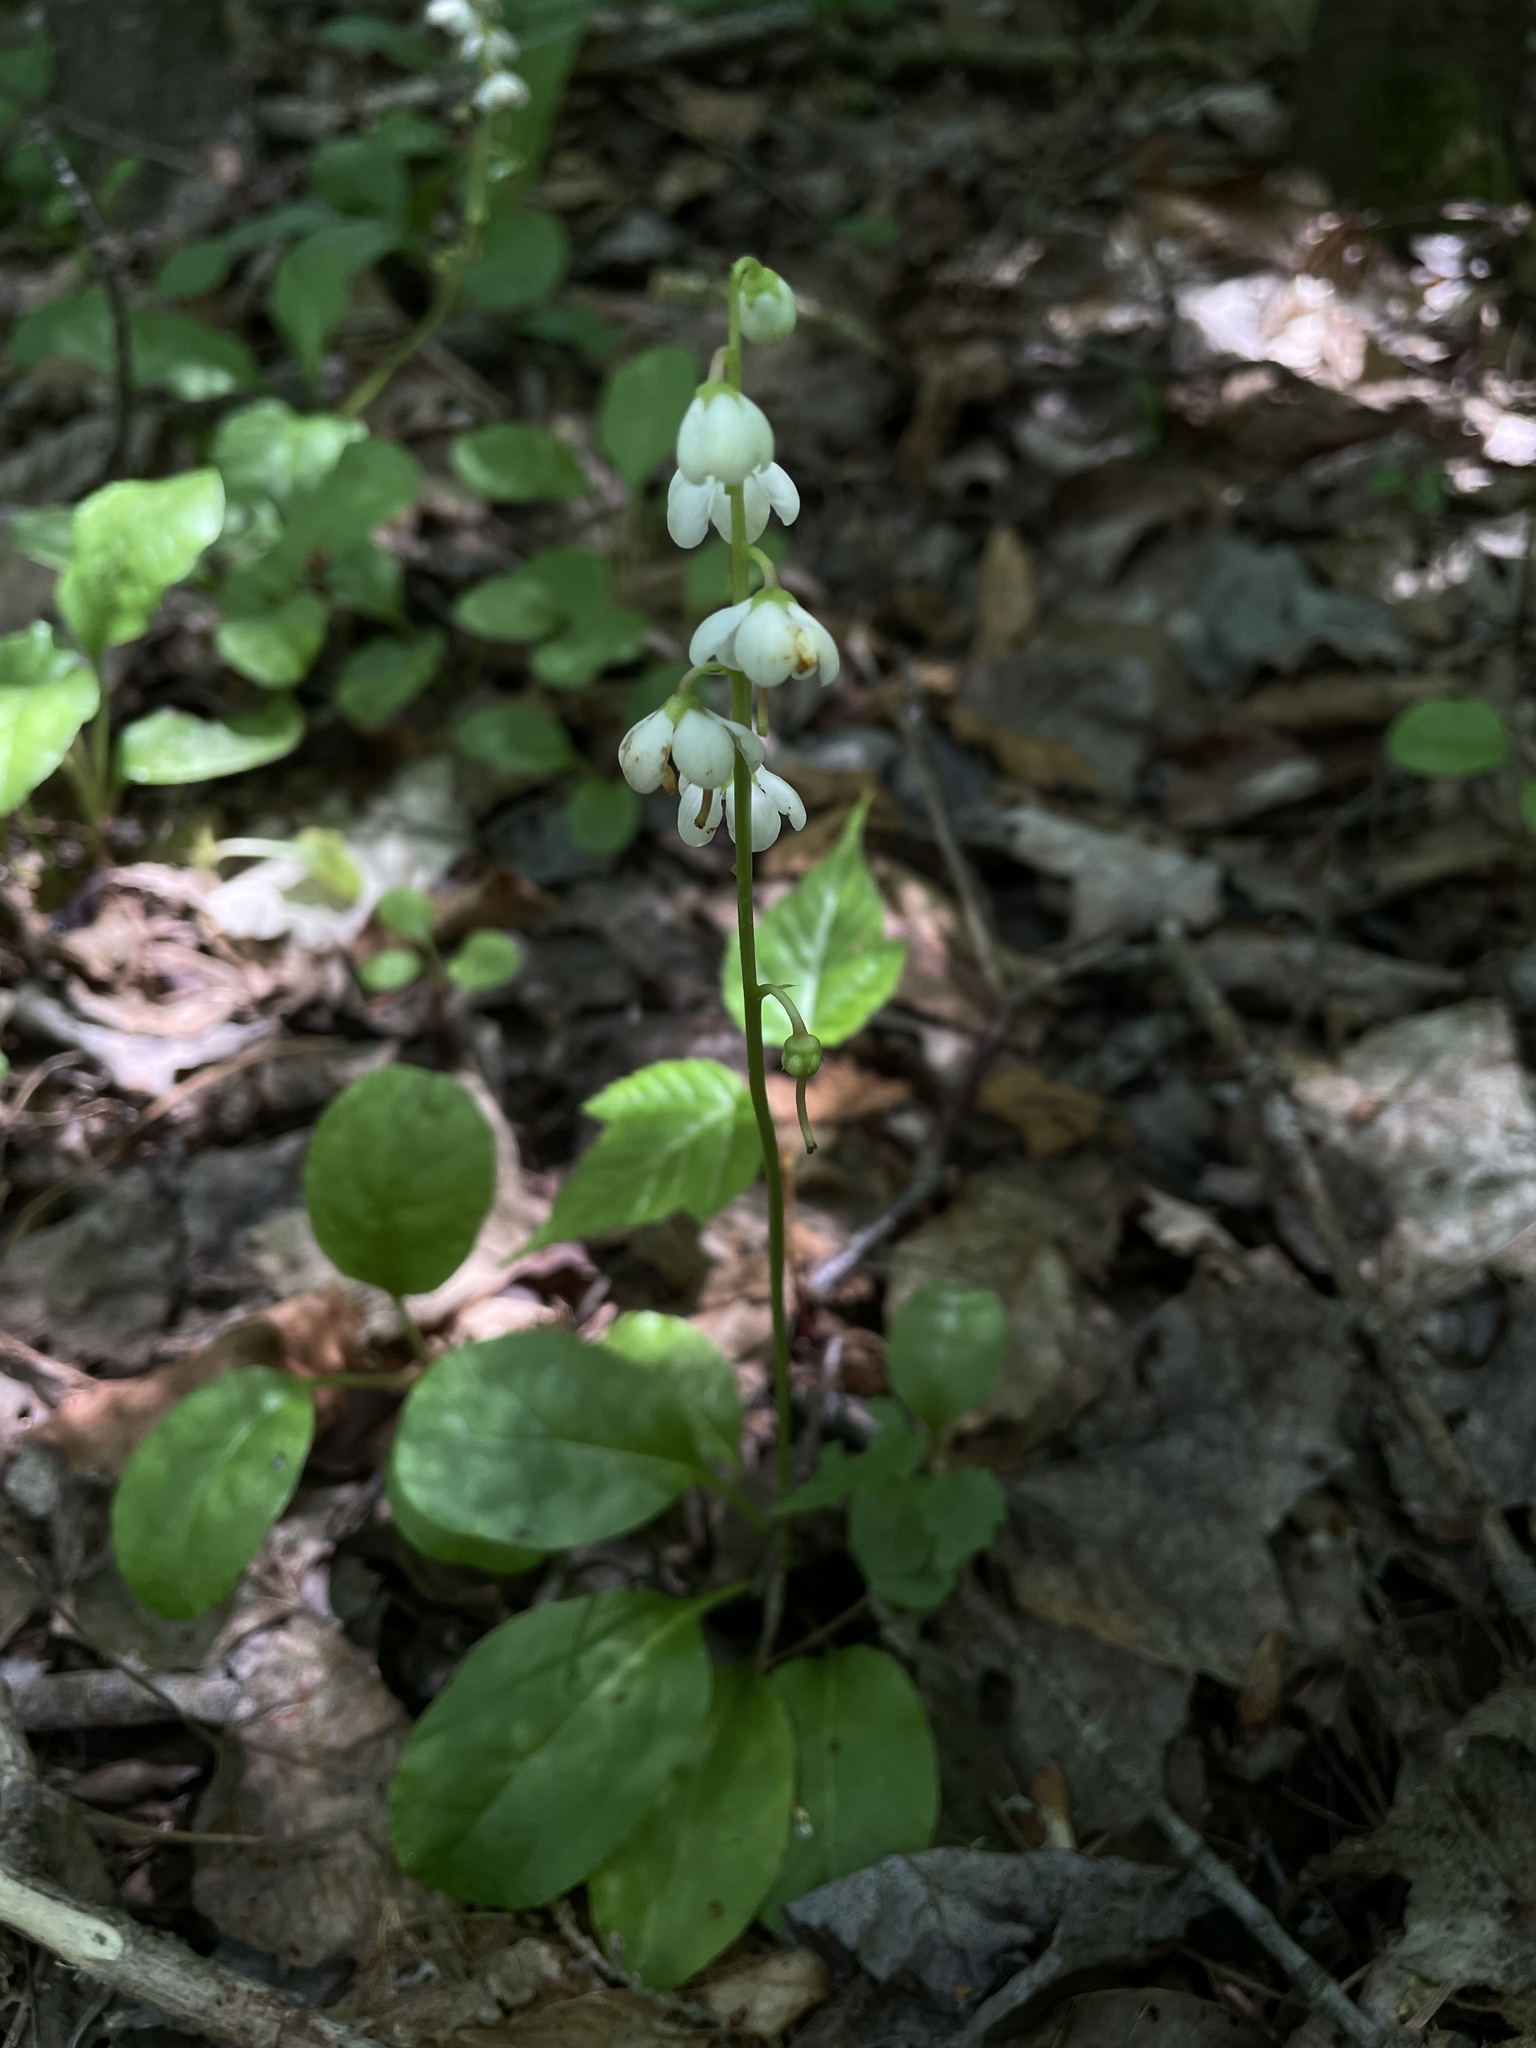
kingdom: Plantae
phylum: Tracheophyta
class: Magnoliopsida
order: Ericales
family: Ericaceae
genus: Pyrola
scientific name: Pyrola elliptica
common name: Shinleaf
